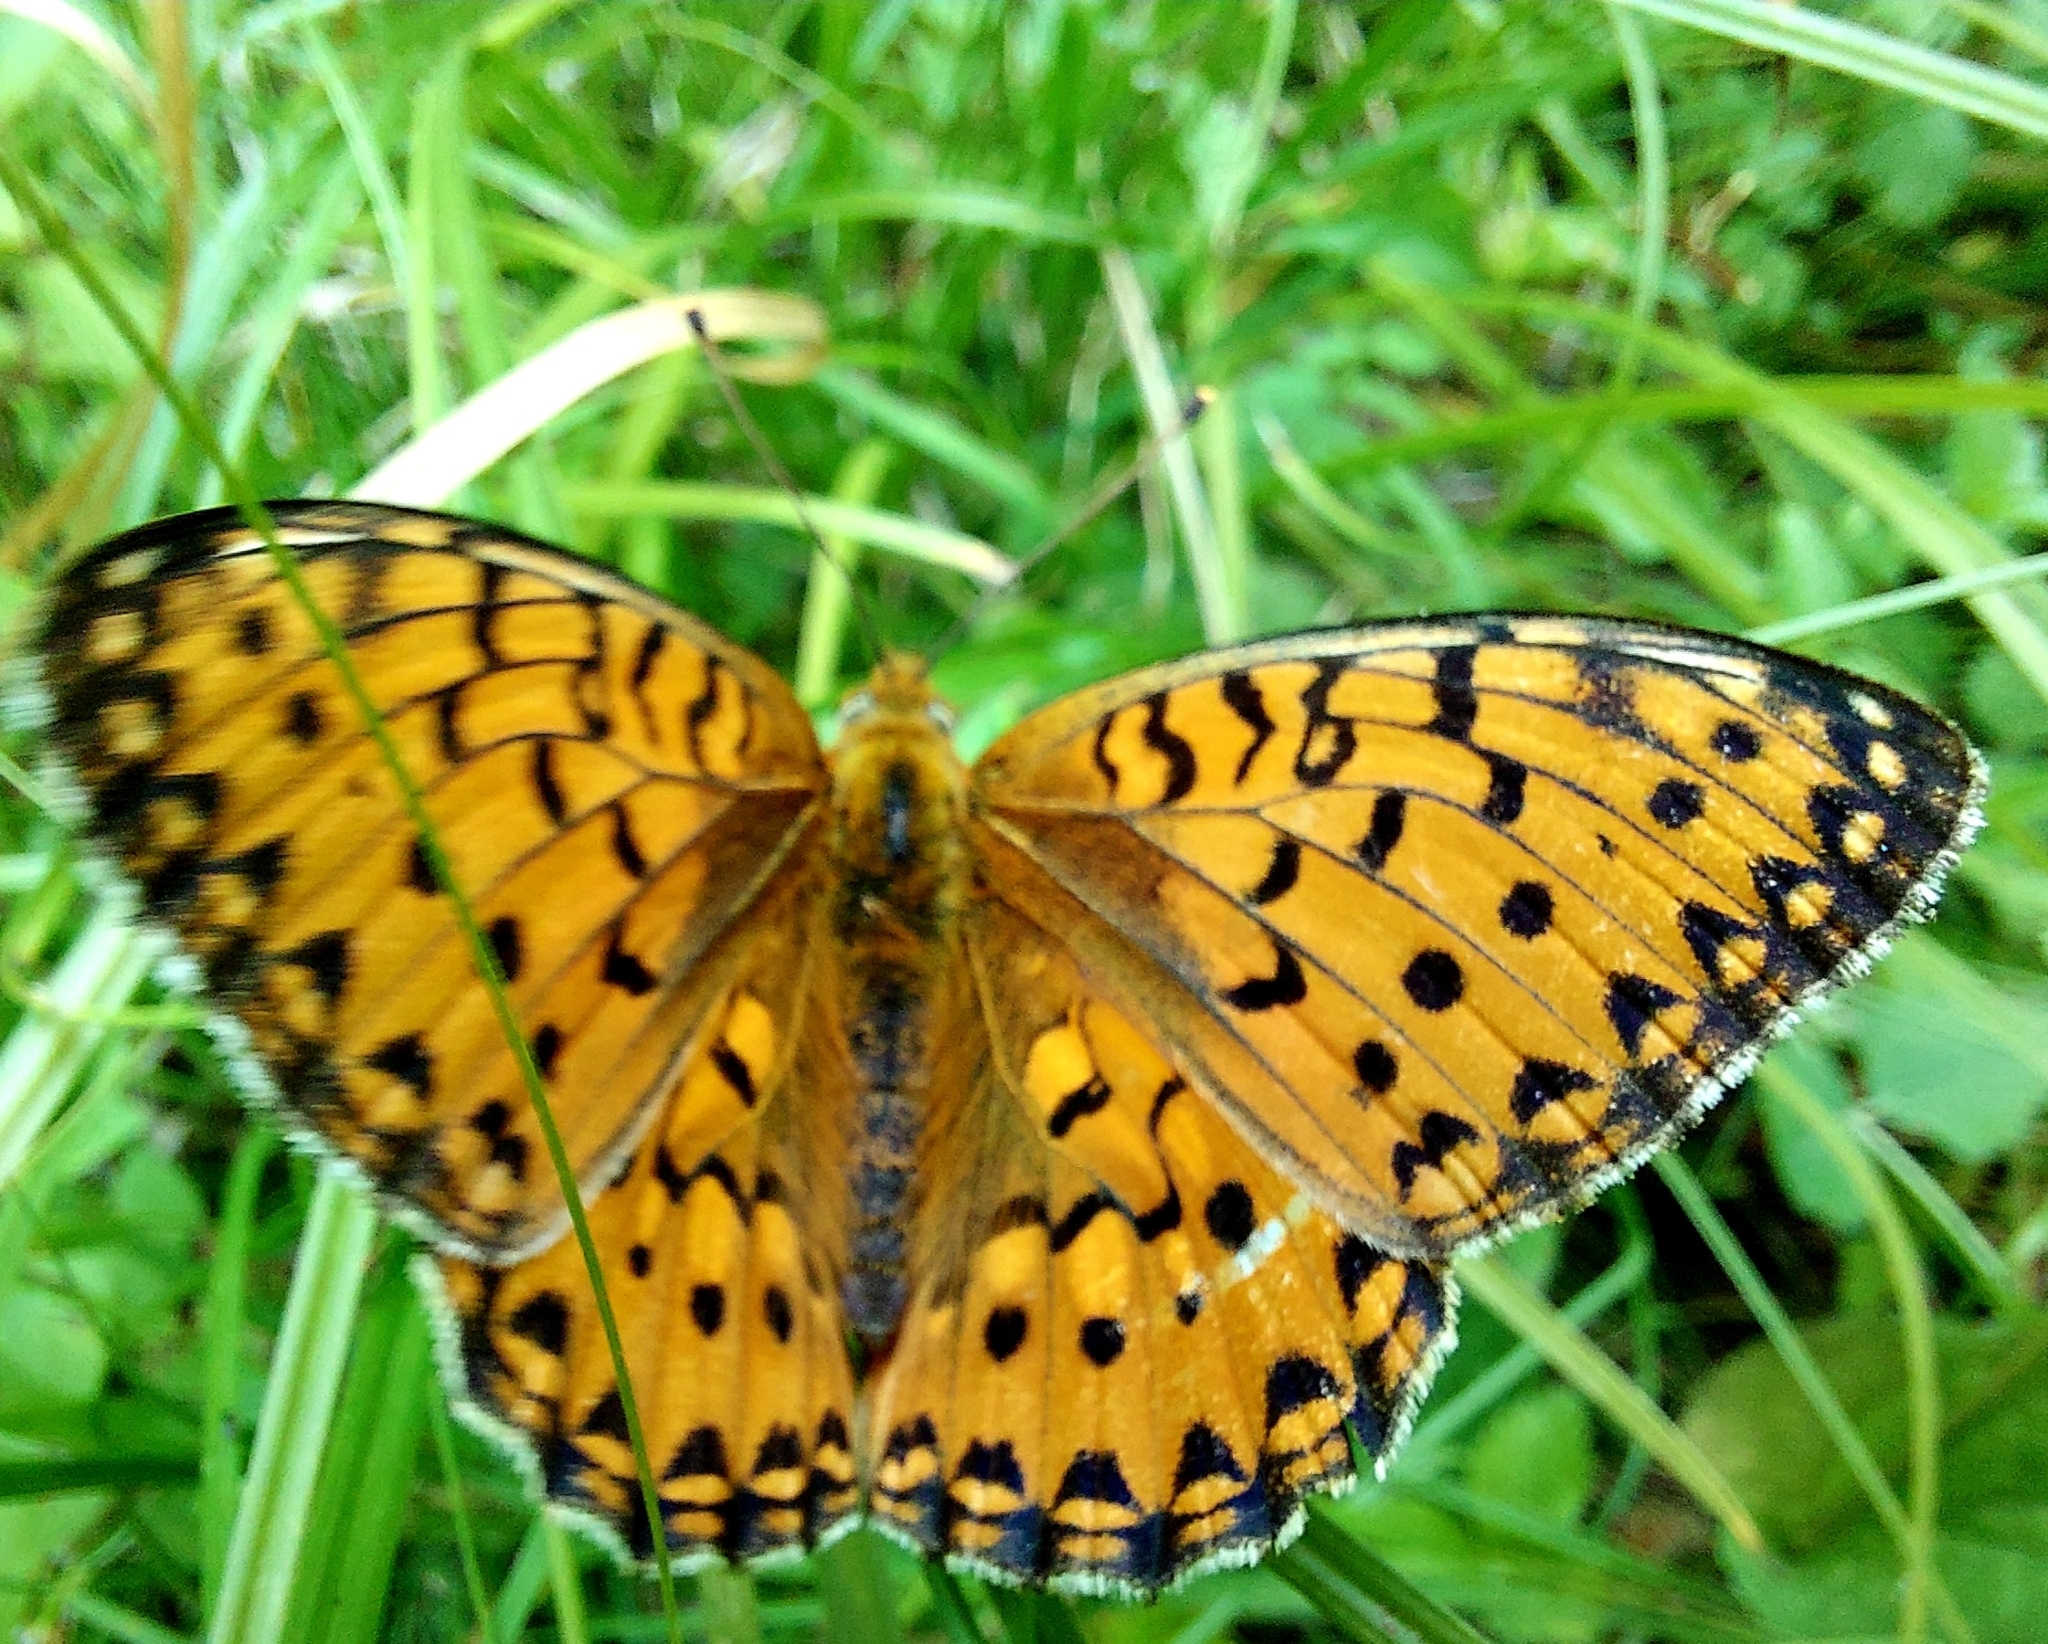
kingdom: Animalia
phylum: Arthropoda
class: Insecta
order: Lepidoptera
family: Nymphalidae
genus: Speyeria
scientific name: Speyeria aglaja
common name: Dark green fritillary
